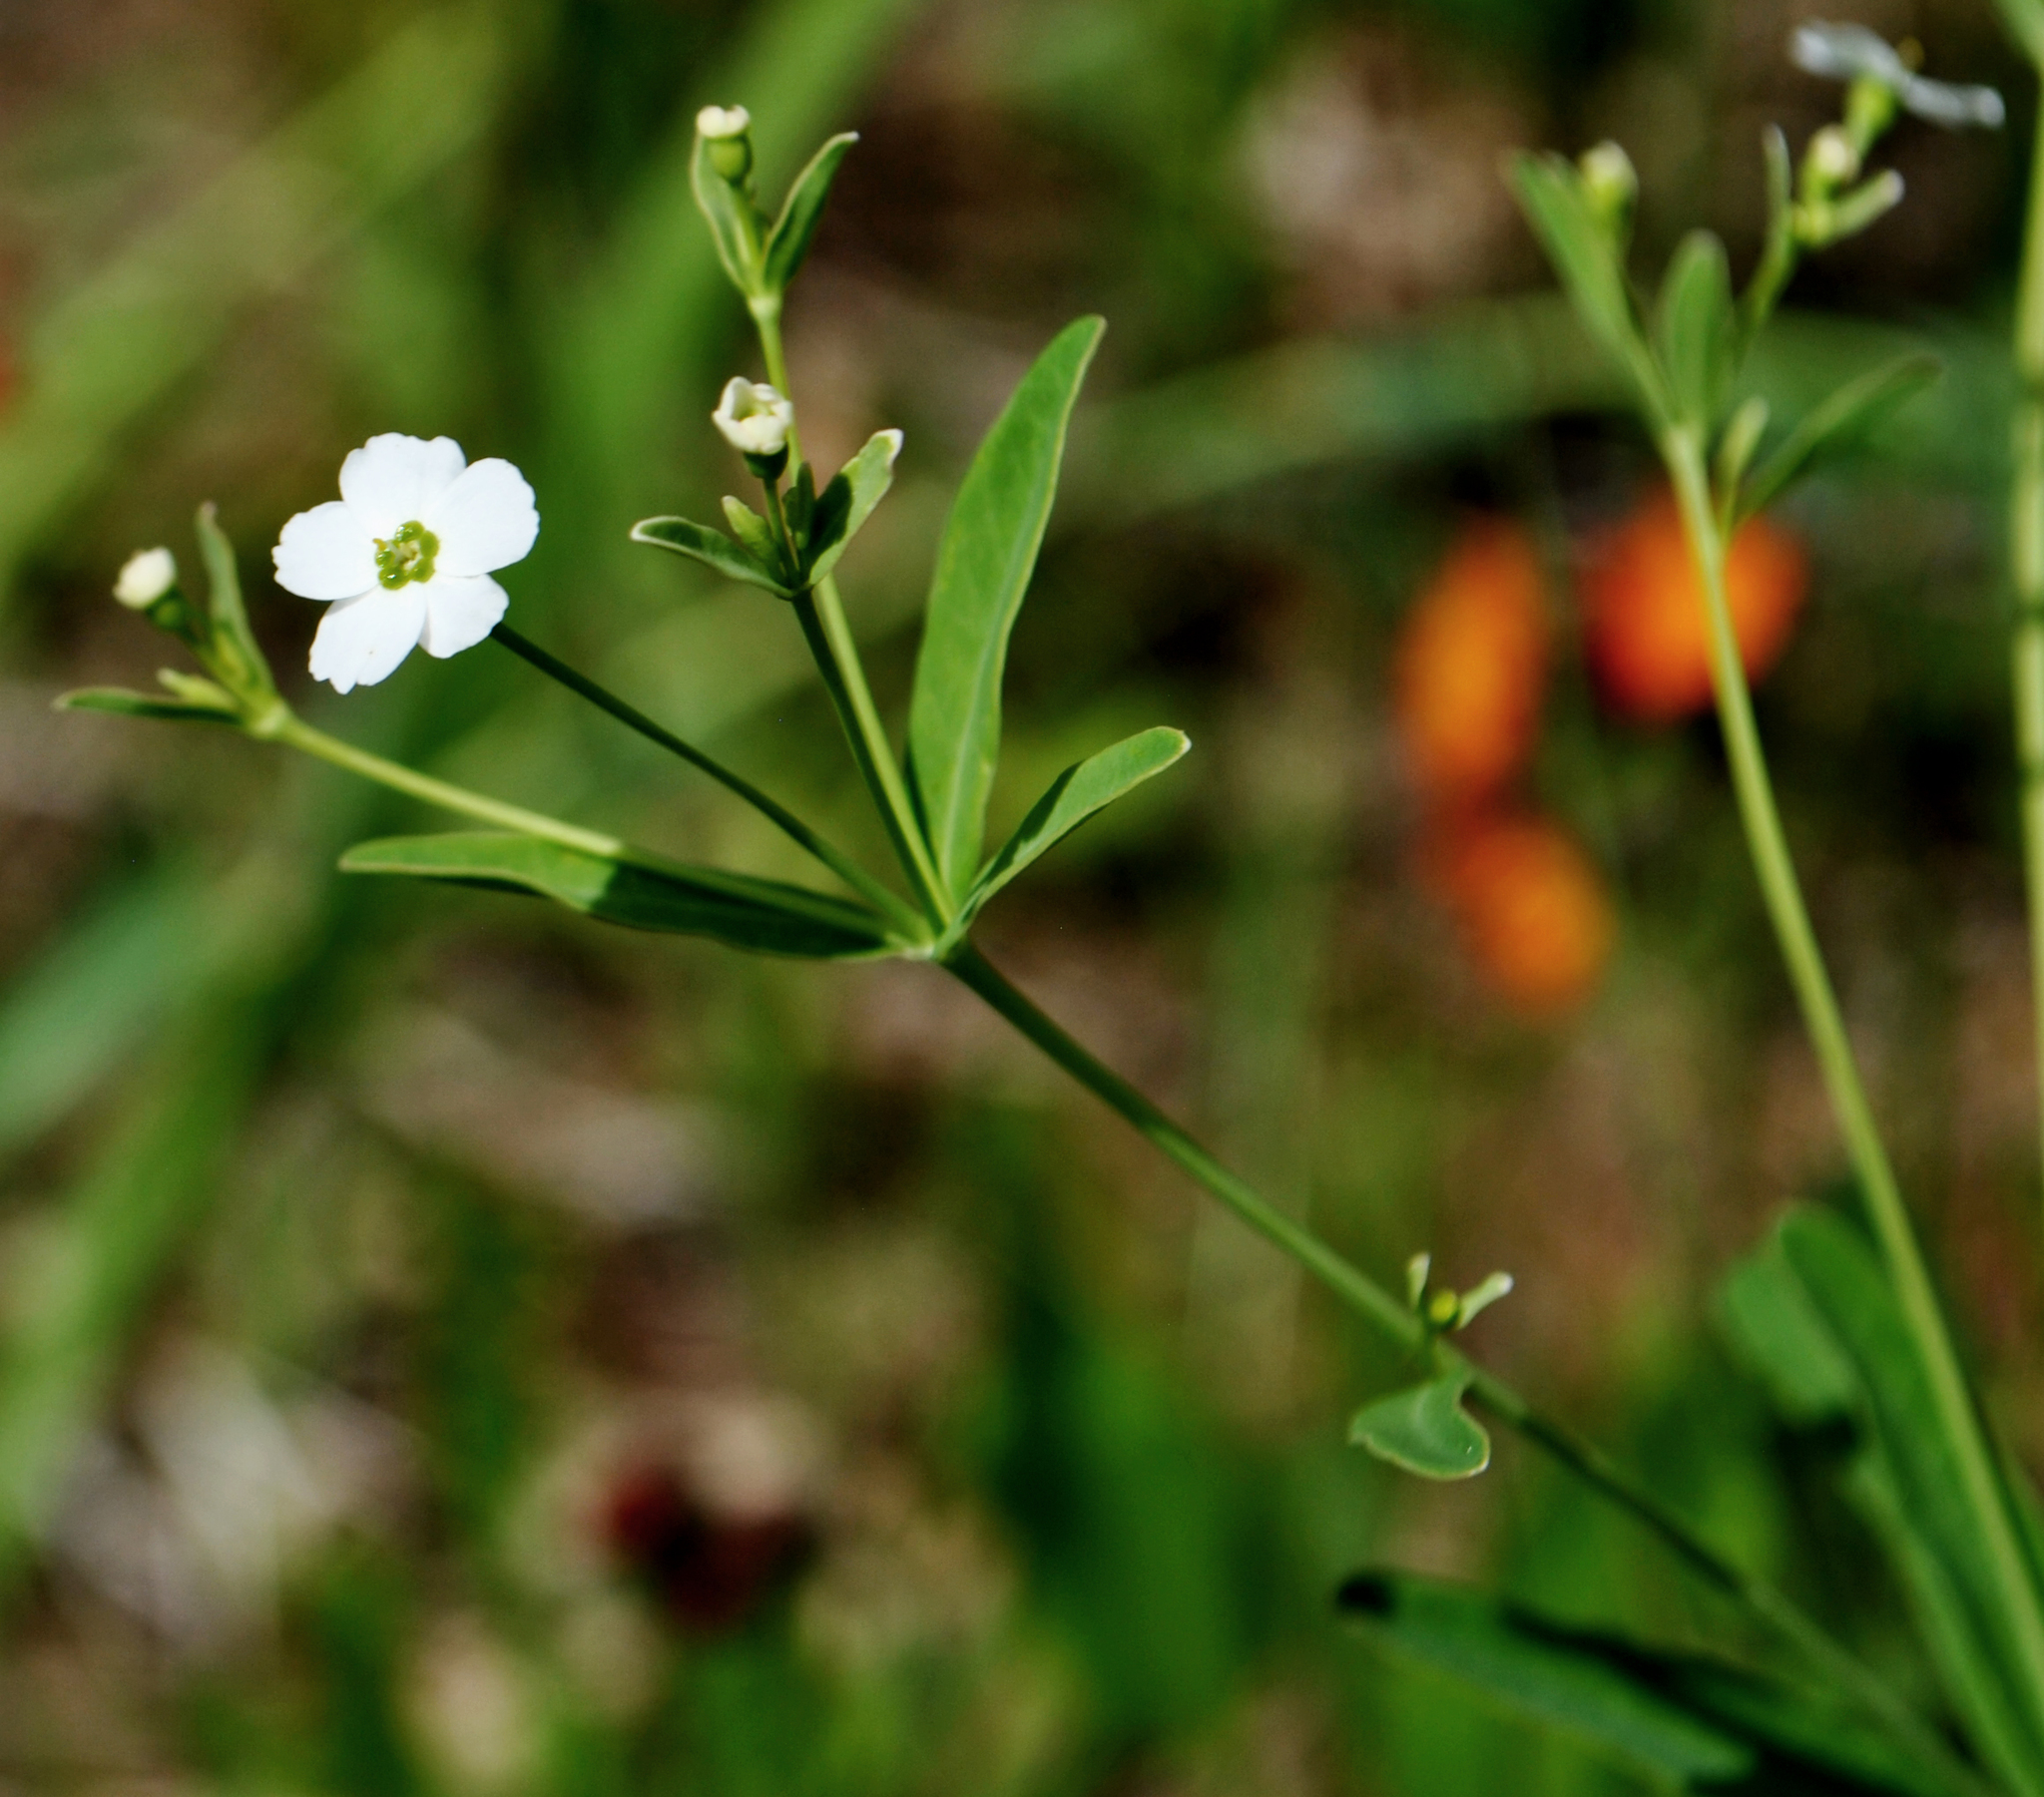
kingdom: Plantae
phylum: Tracheophyta
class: Magnoliopsida
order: Malpighiales
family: Euphorbiaceae
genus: Euphorbia
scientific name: Euphorbia corollata
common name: Flowering spurge
